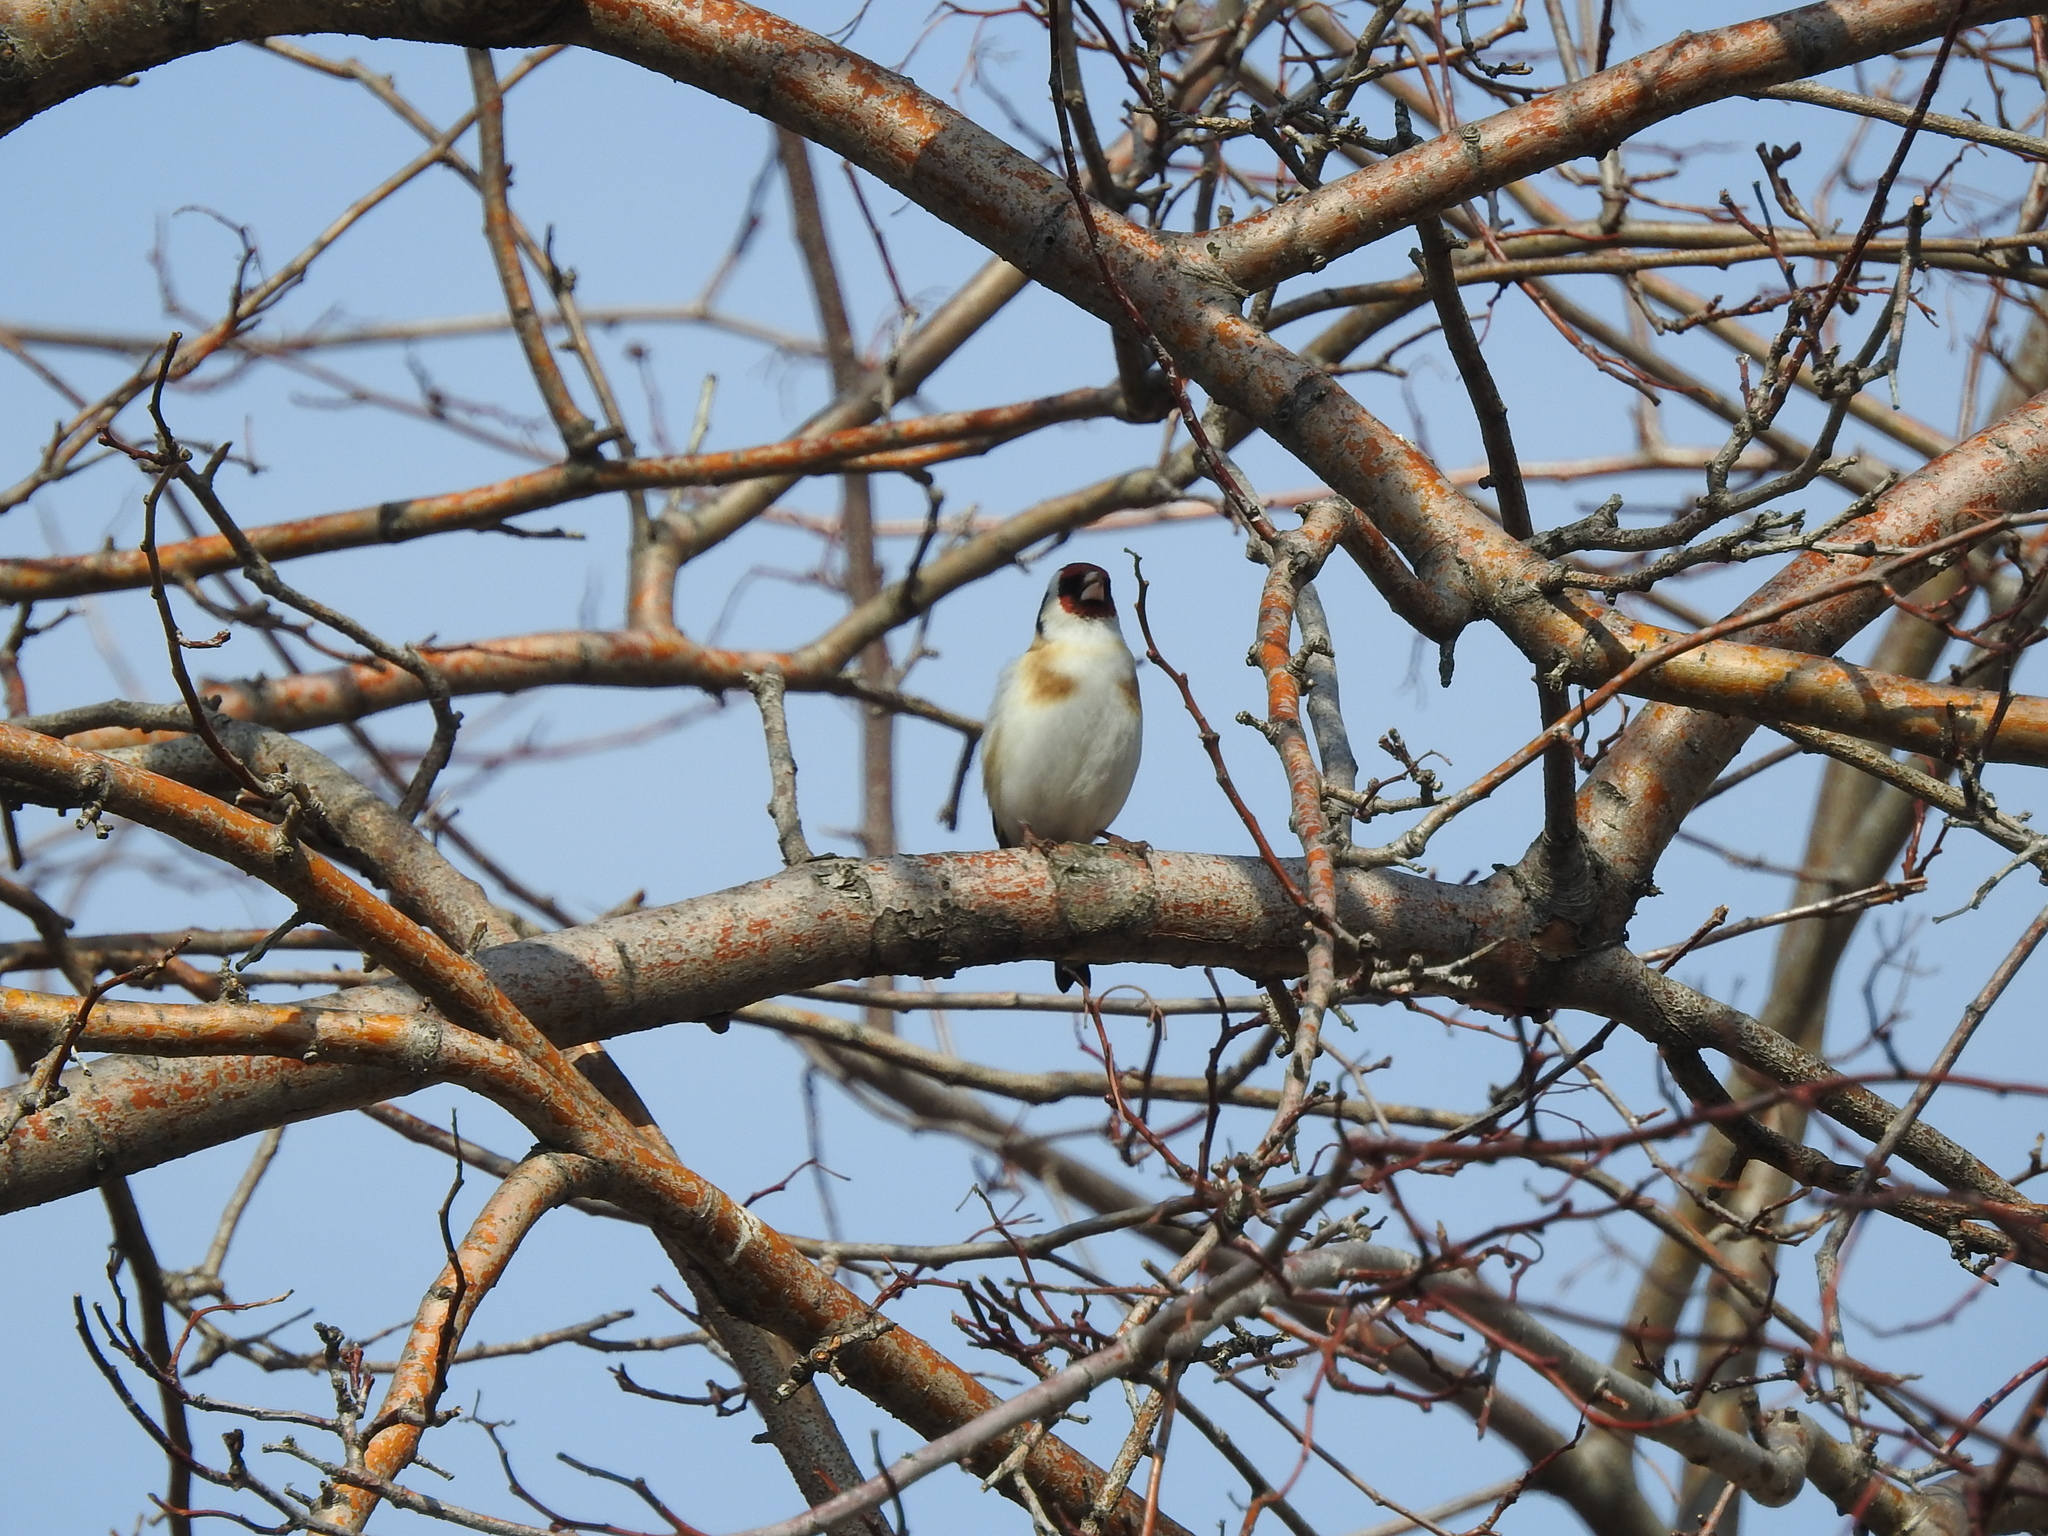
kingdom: Animalia
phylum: Chordata
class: Aves
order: Passeriformes
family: Fringillidae
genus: Carduelis
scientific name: Carduelis carduelis
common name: European goldfinch
